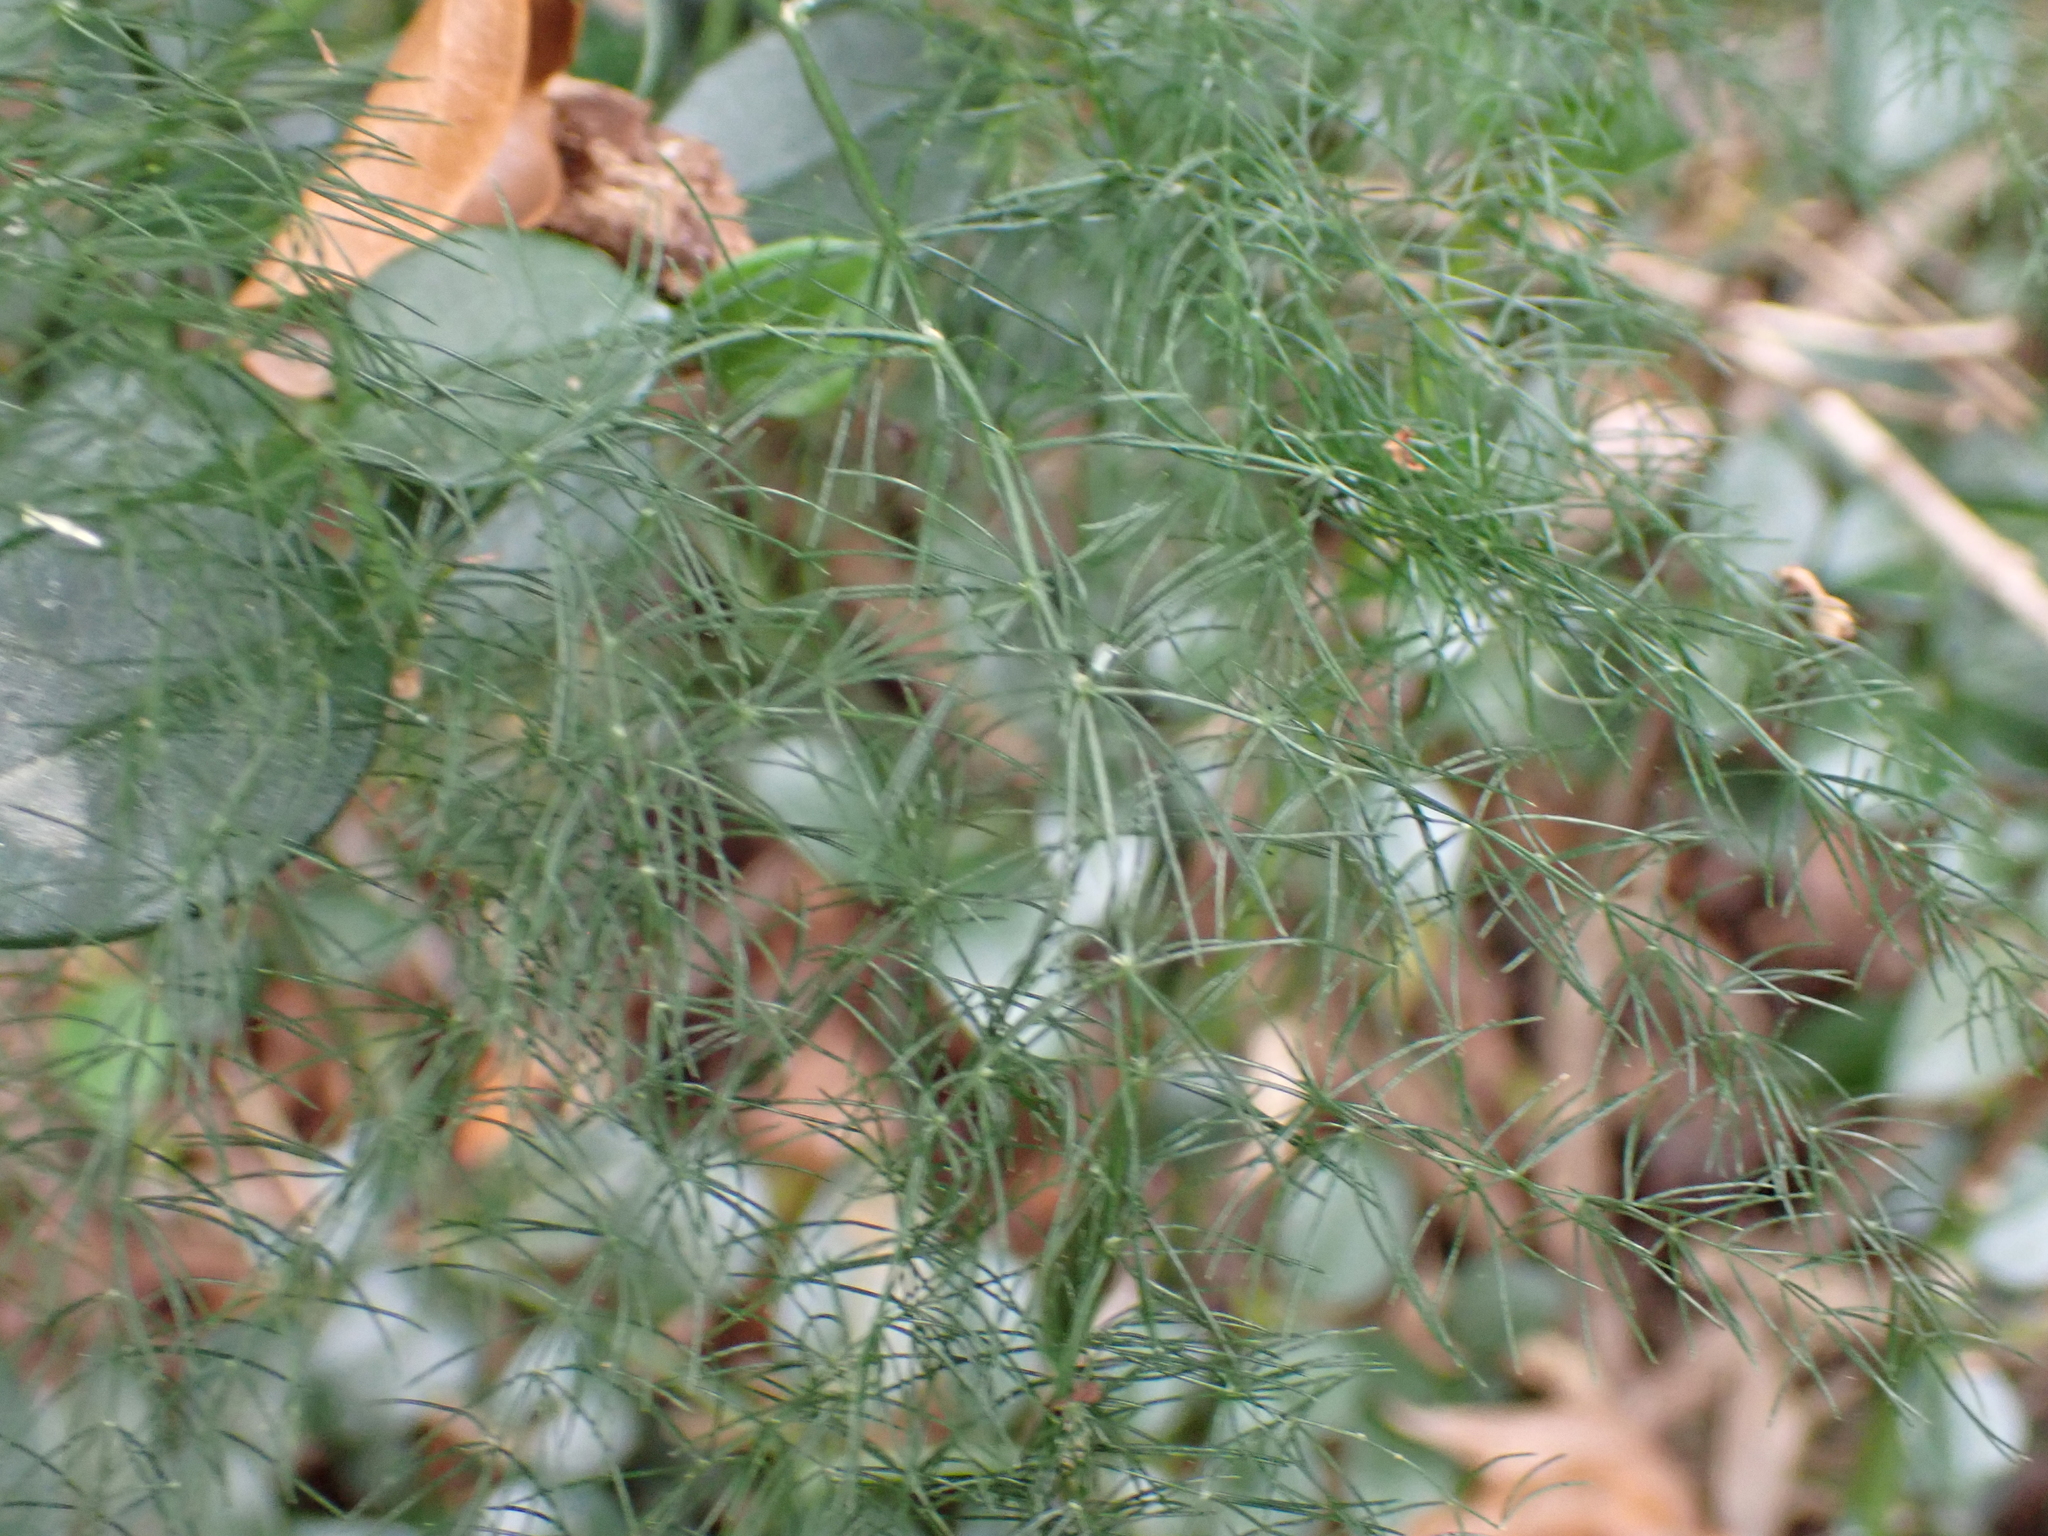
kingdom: Plantae
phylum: Tracheophyta
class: Liliopsida
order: Asparagales
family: Asparagaceae
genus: Asparagus
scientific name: Asparagus setaceus
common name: Common asparagus fern
